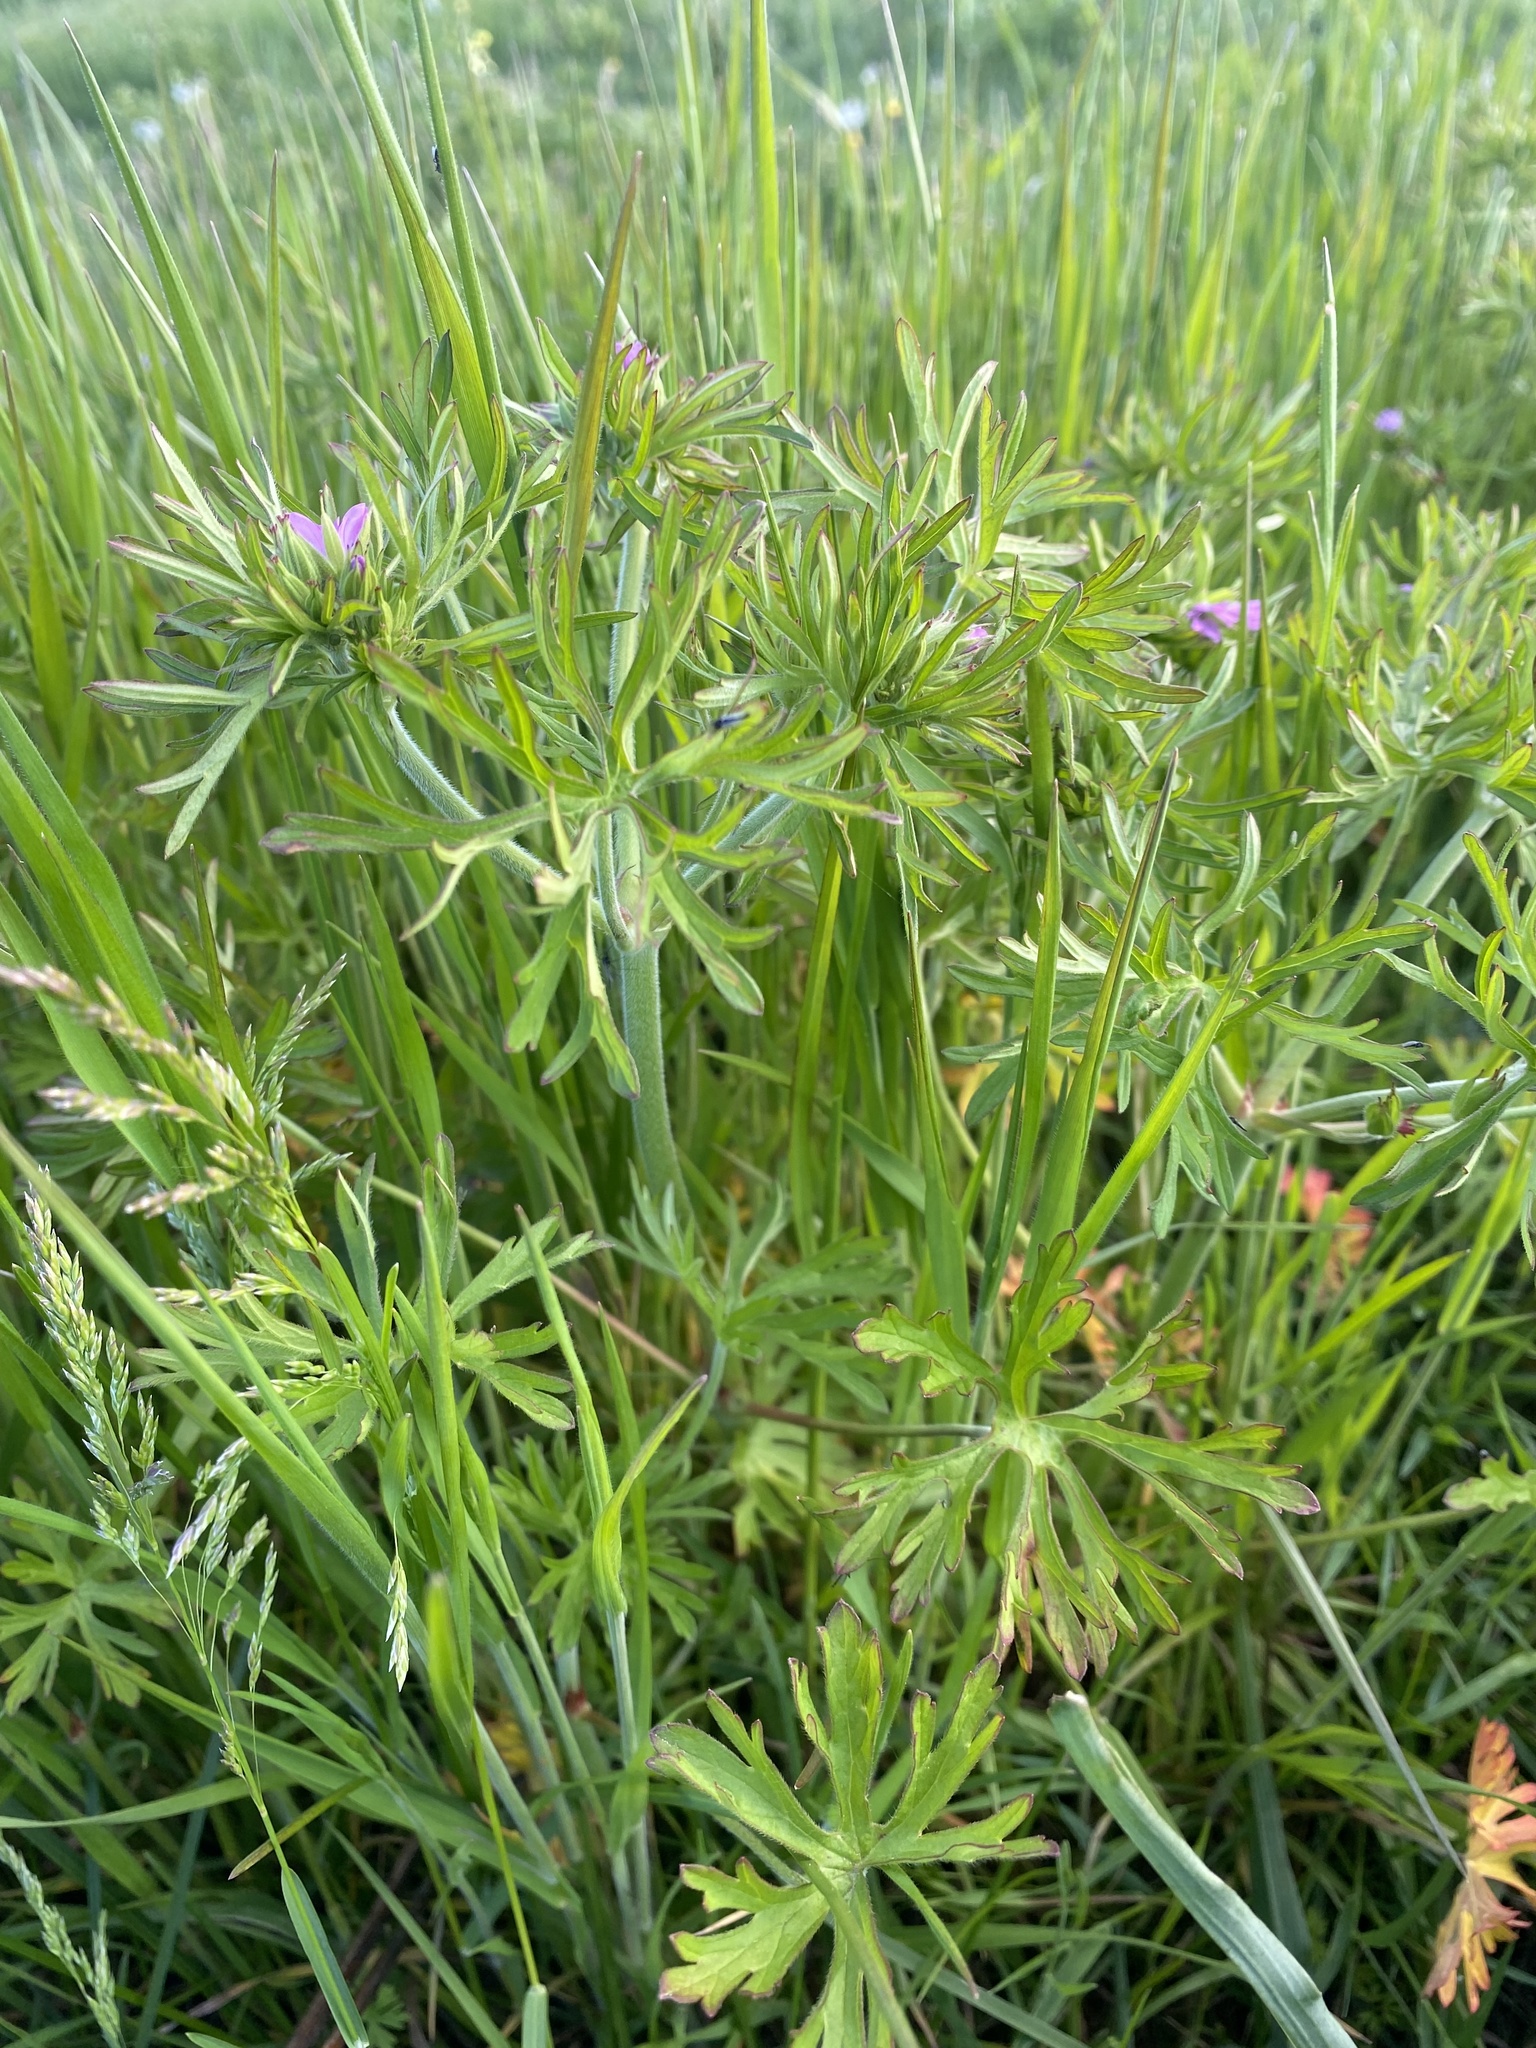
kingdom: Plantae
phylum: Tracheophyta
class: Magnoliopsida
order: Geraniales
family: Geraniaceae
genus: Geranium
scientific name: Geranium dissectum
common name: Cut-leaved crane's-bill
